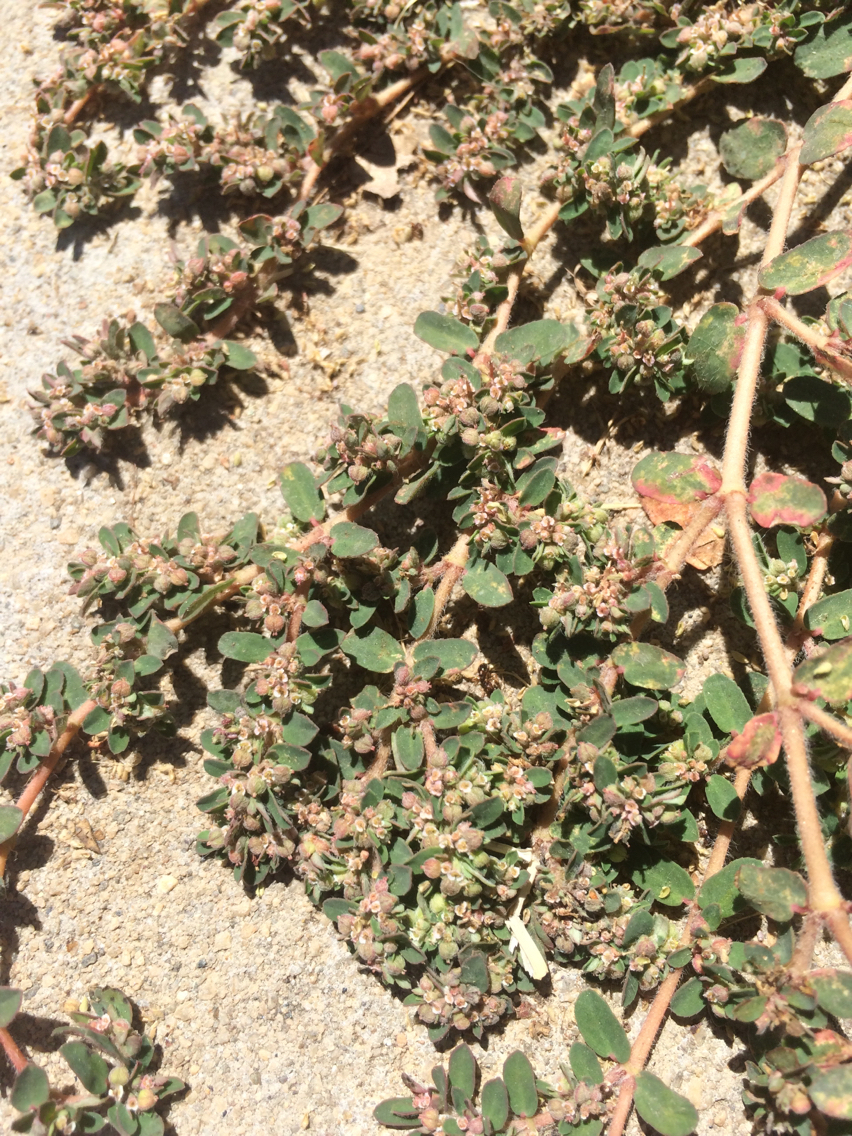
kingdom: Plantae
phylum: Tracheophyta
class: Magnoliopsida
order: Malpighiales
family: Euphorbiaceae
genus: Euphorbia
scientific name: Euphorbia maculata
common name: Spotted spurge
